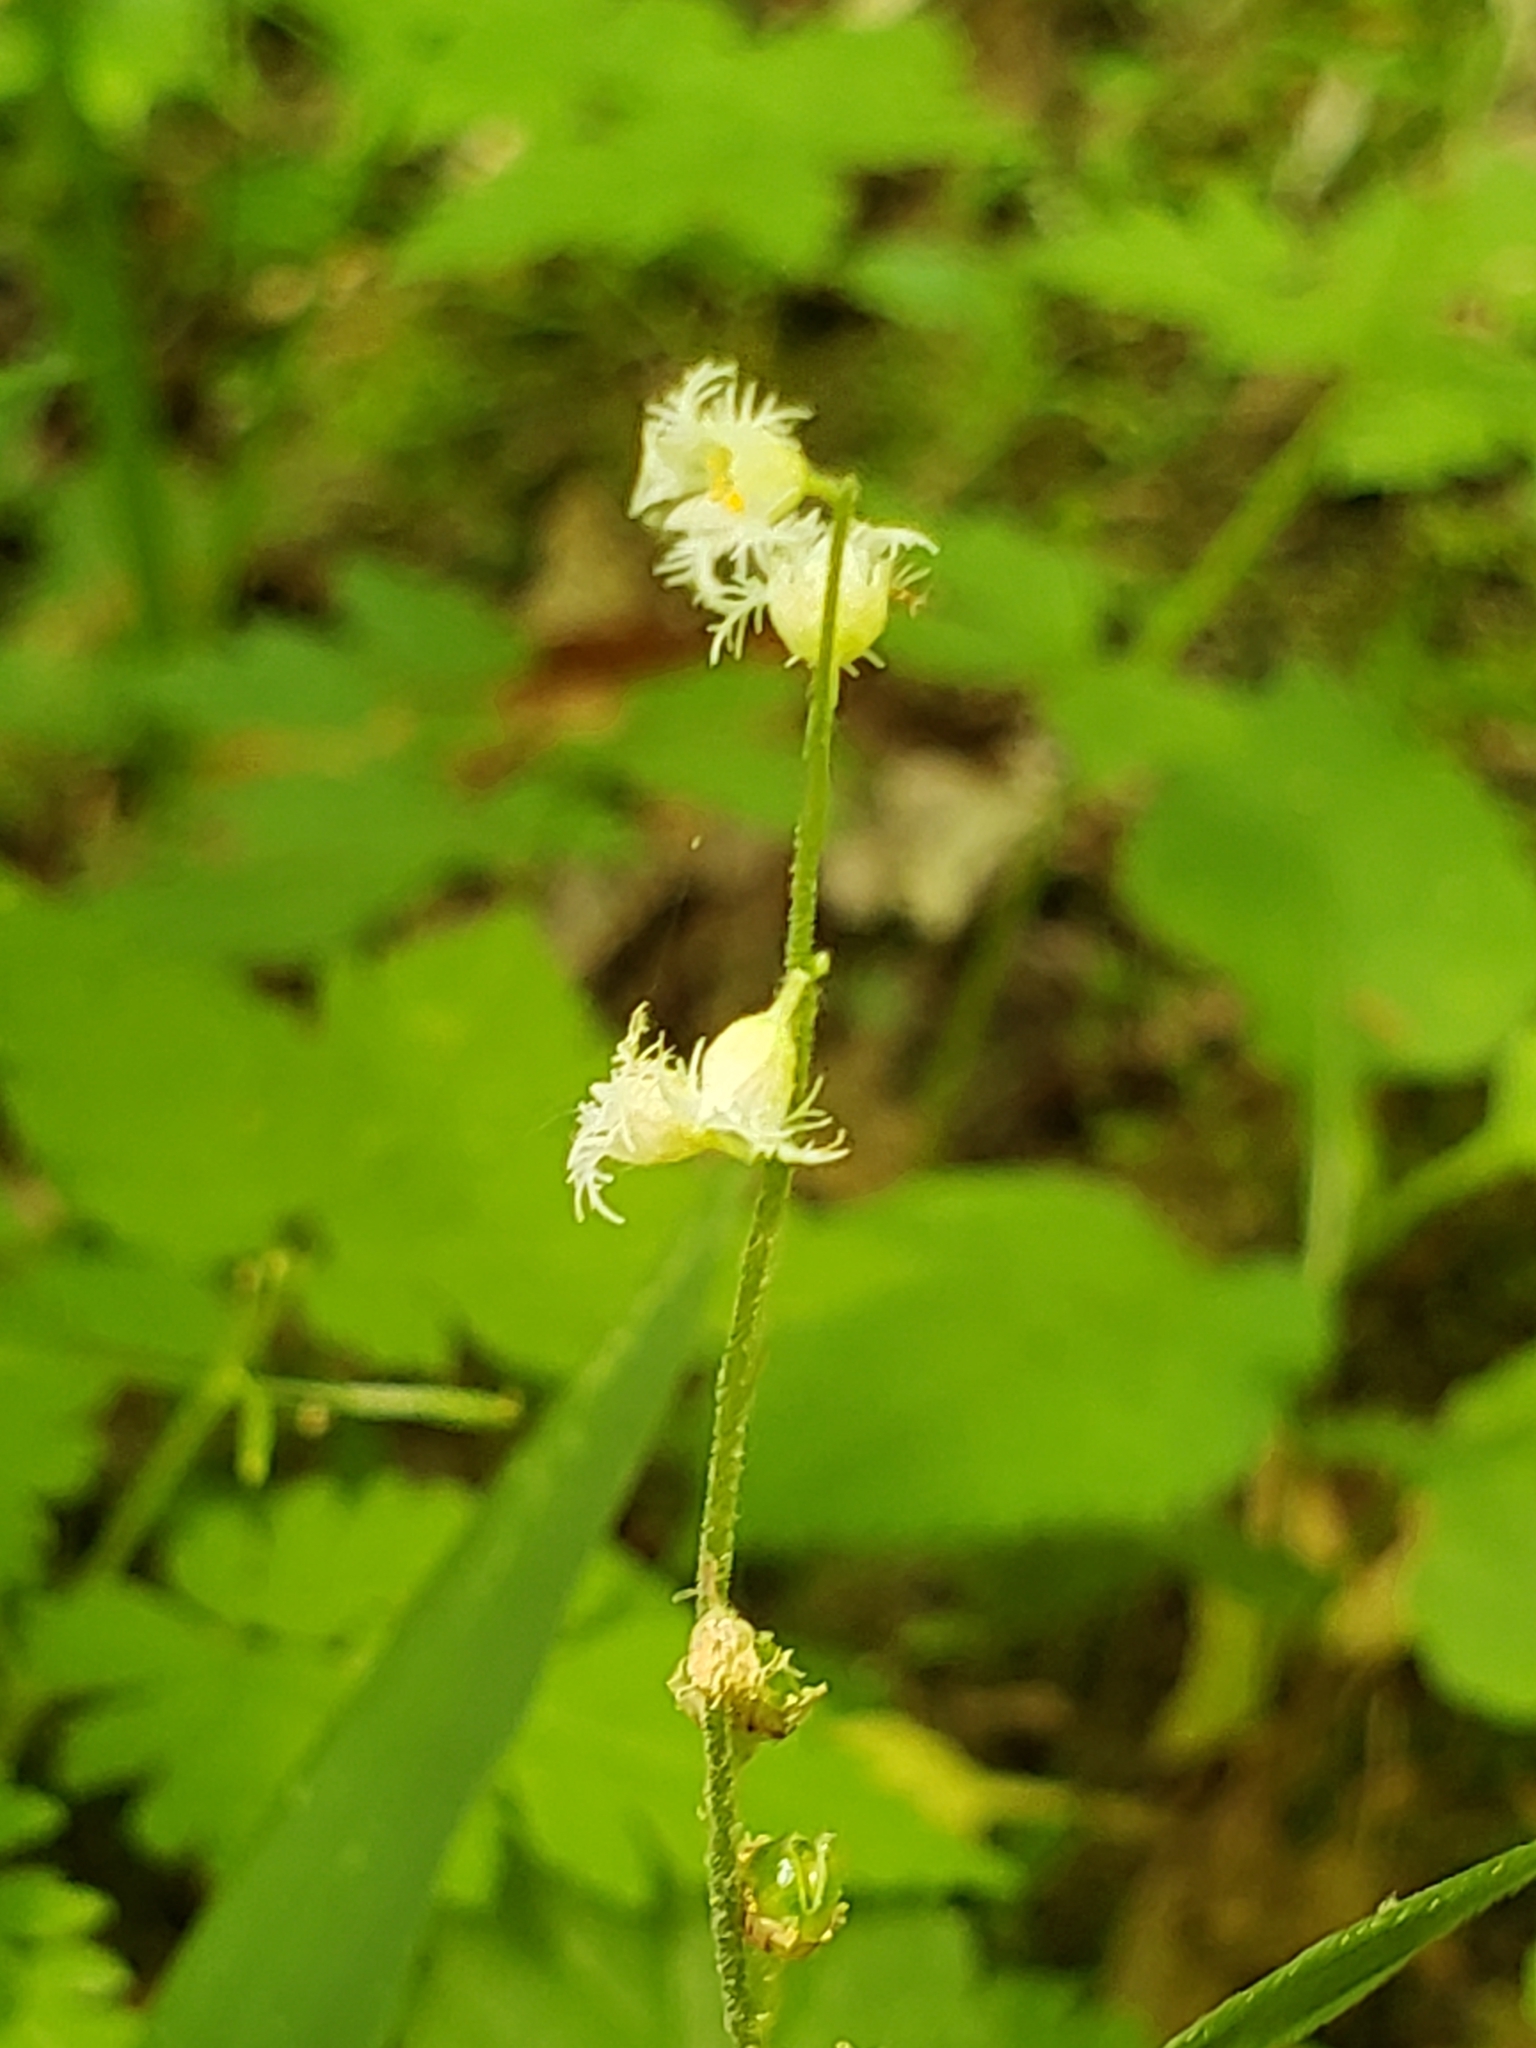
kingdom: Plantae
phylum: Tracheophyta
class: Magnoliopsida
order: Saxifragales
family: Saxifragaceae
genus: Mitella
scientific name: Mitella diphylla
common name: Coolwort
